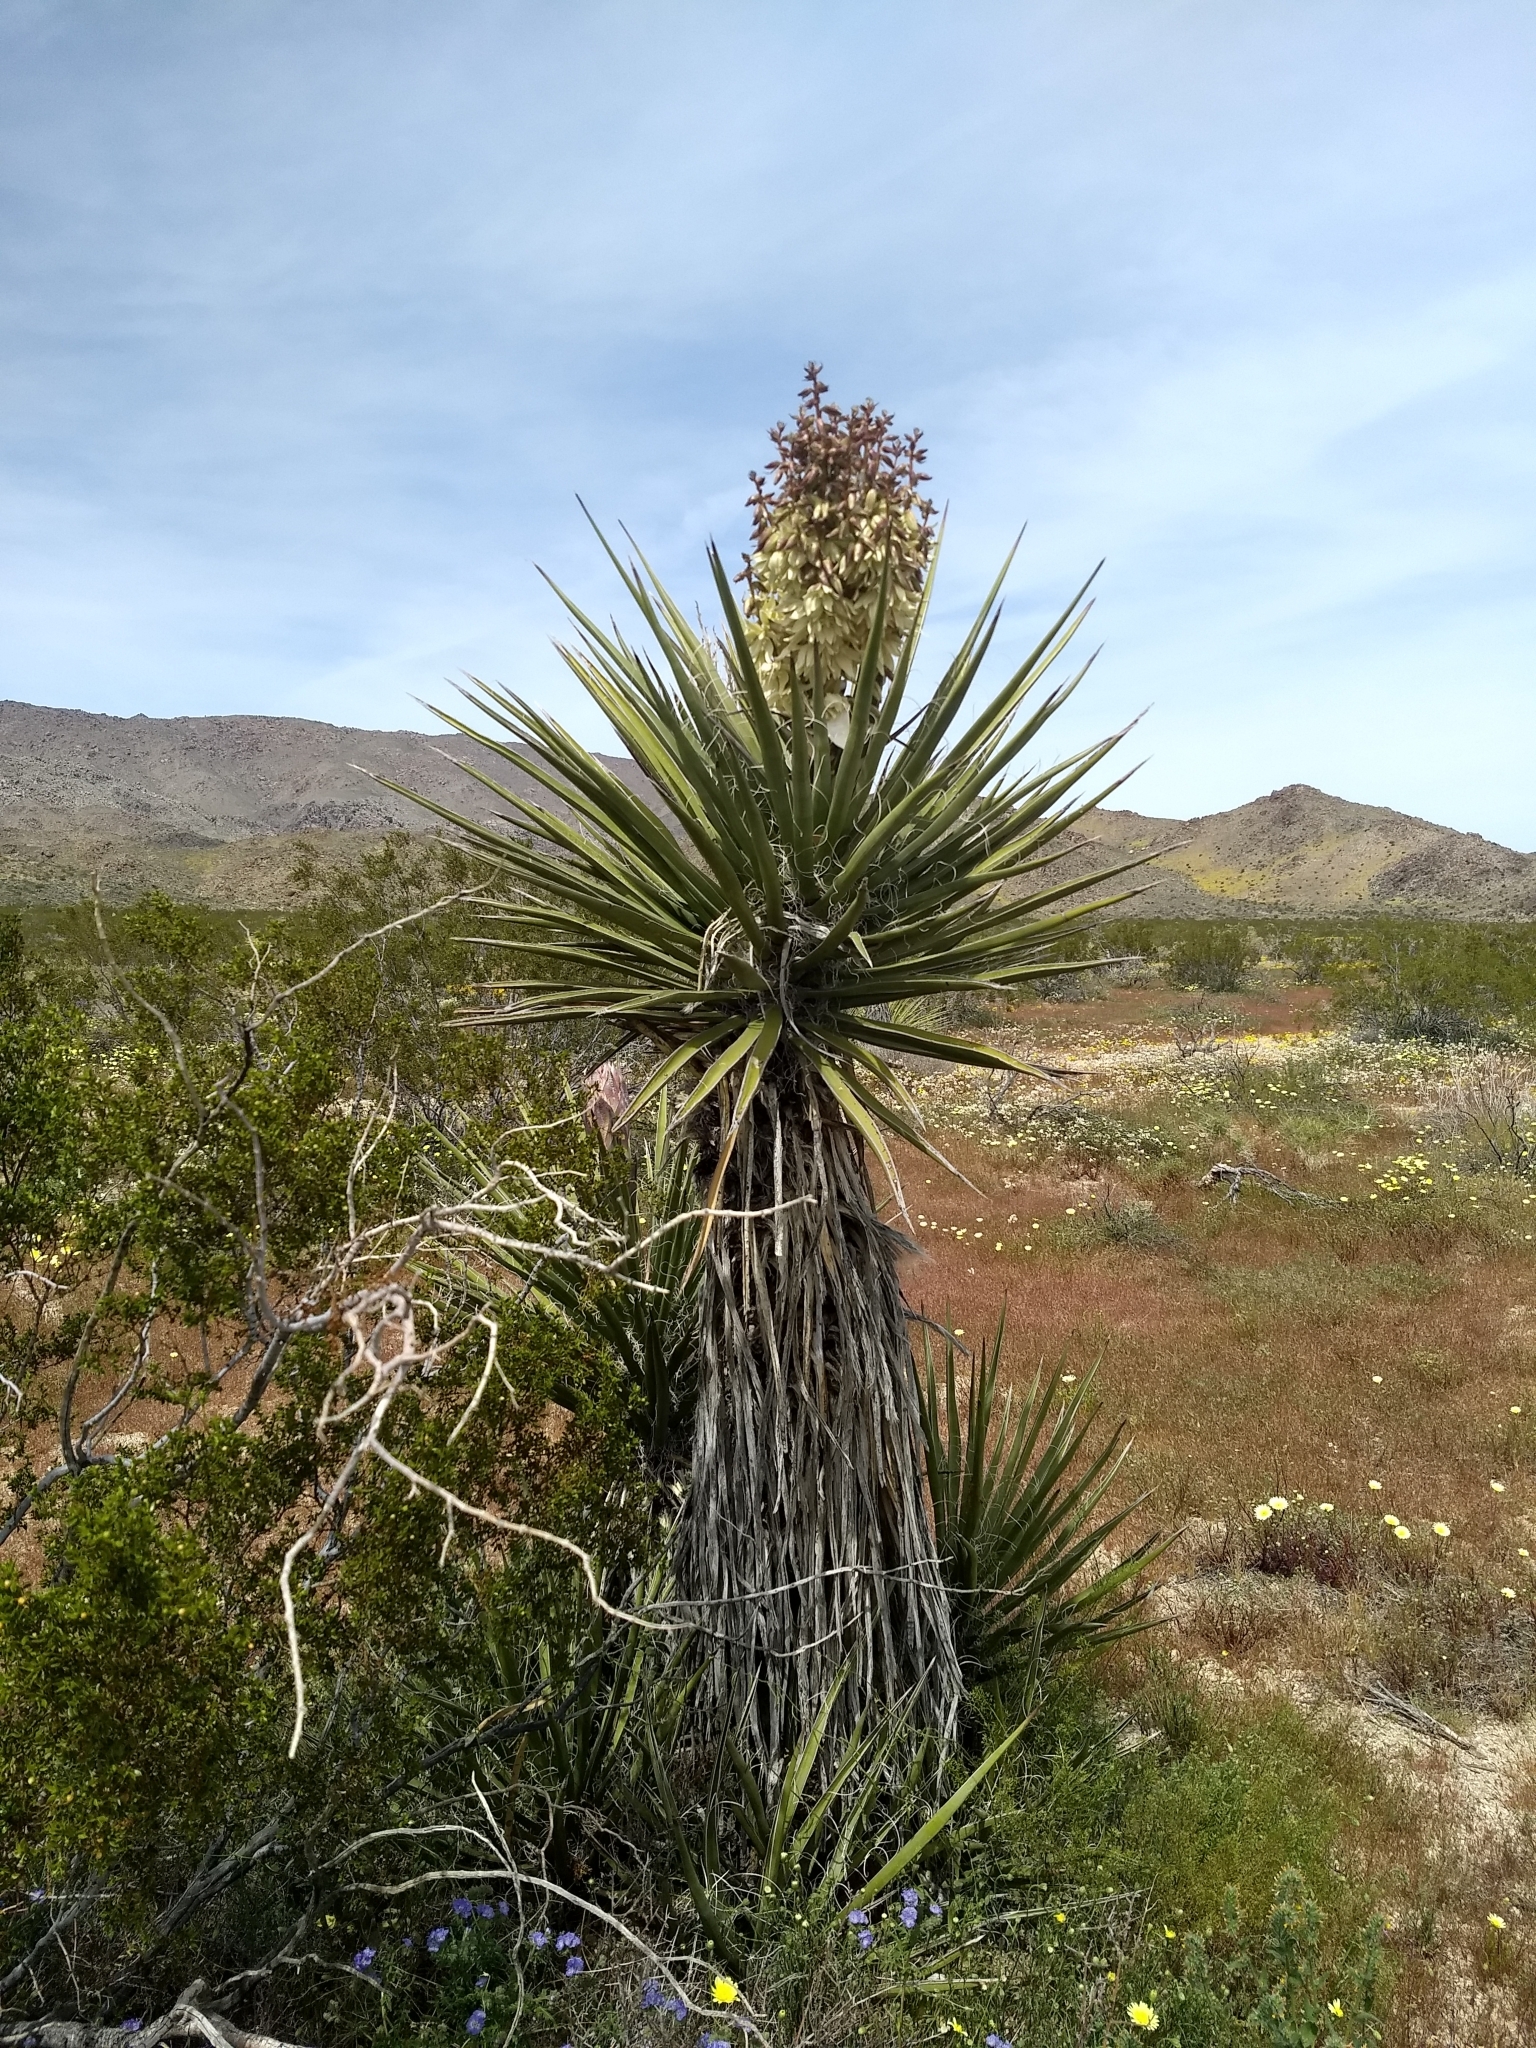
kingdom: Plantae
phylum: Tracheophyta
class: Liliopsida
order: Asparagales
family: Asparagaceae
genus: Yucca
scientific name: Yucca schidigera
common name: Mojave yucca
